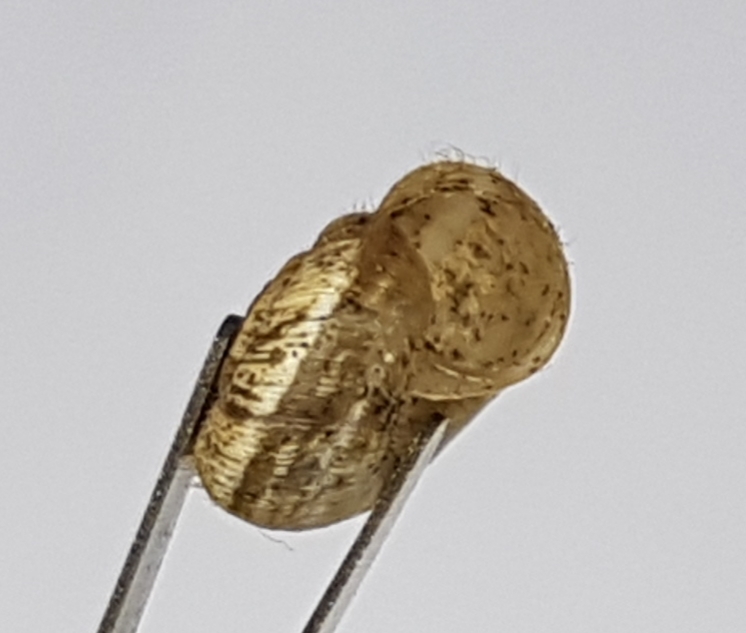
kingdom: Animalia
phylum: Mollusca
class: Gastropoda
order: Stylommatophora
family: Geomitridae
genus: Xerotricha
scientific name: Xerotricha apicina
